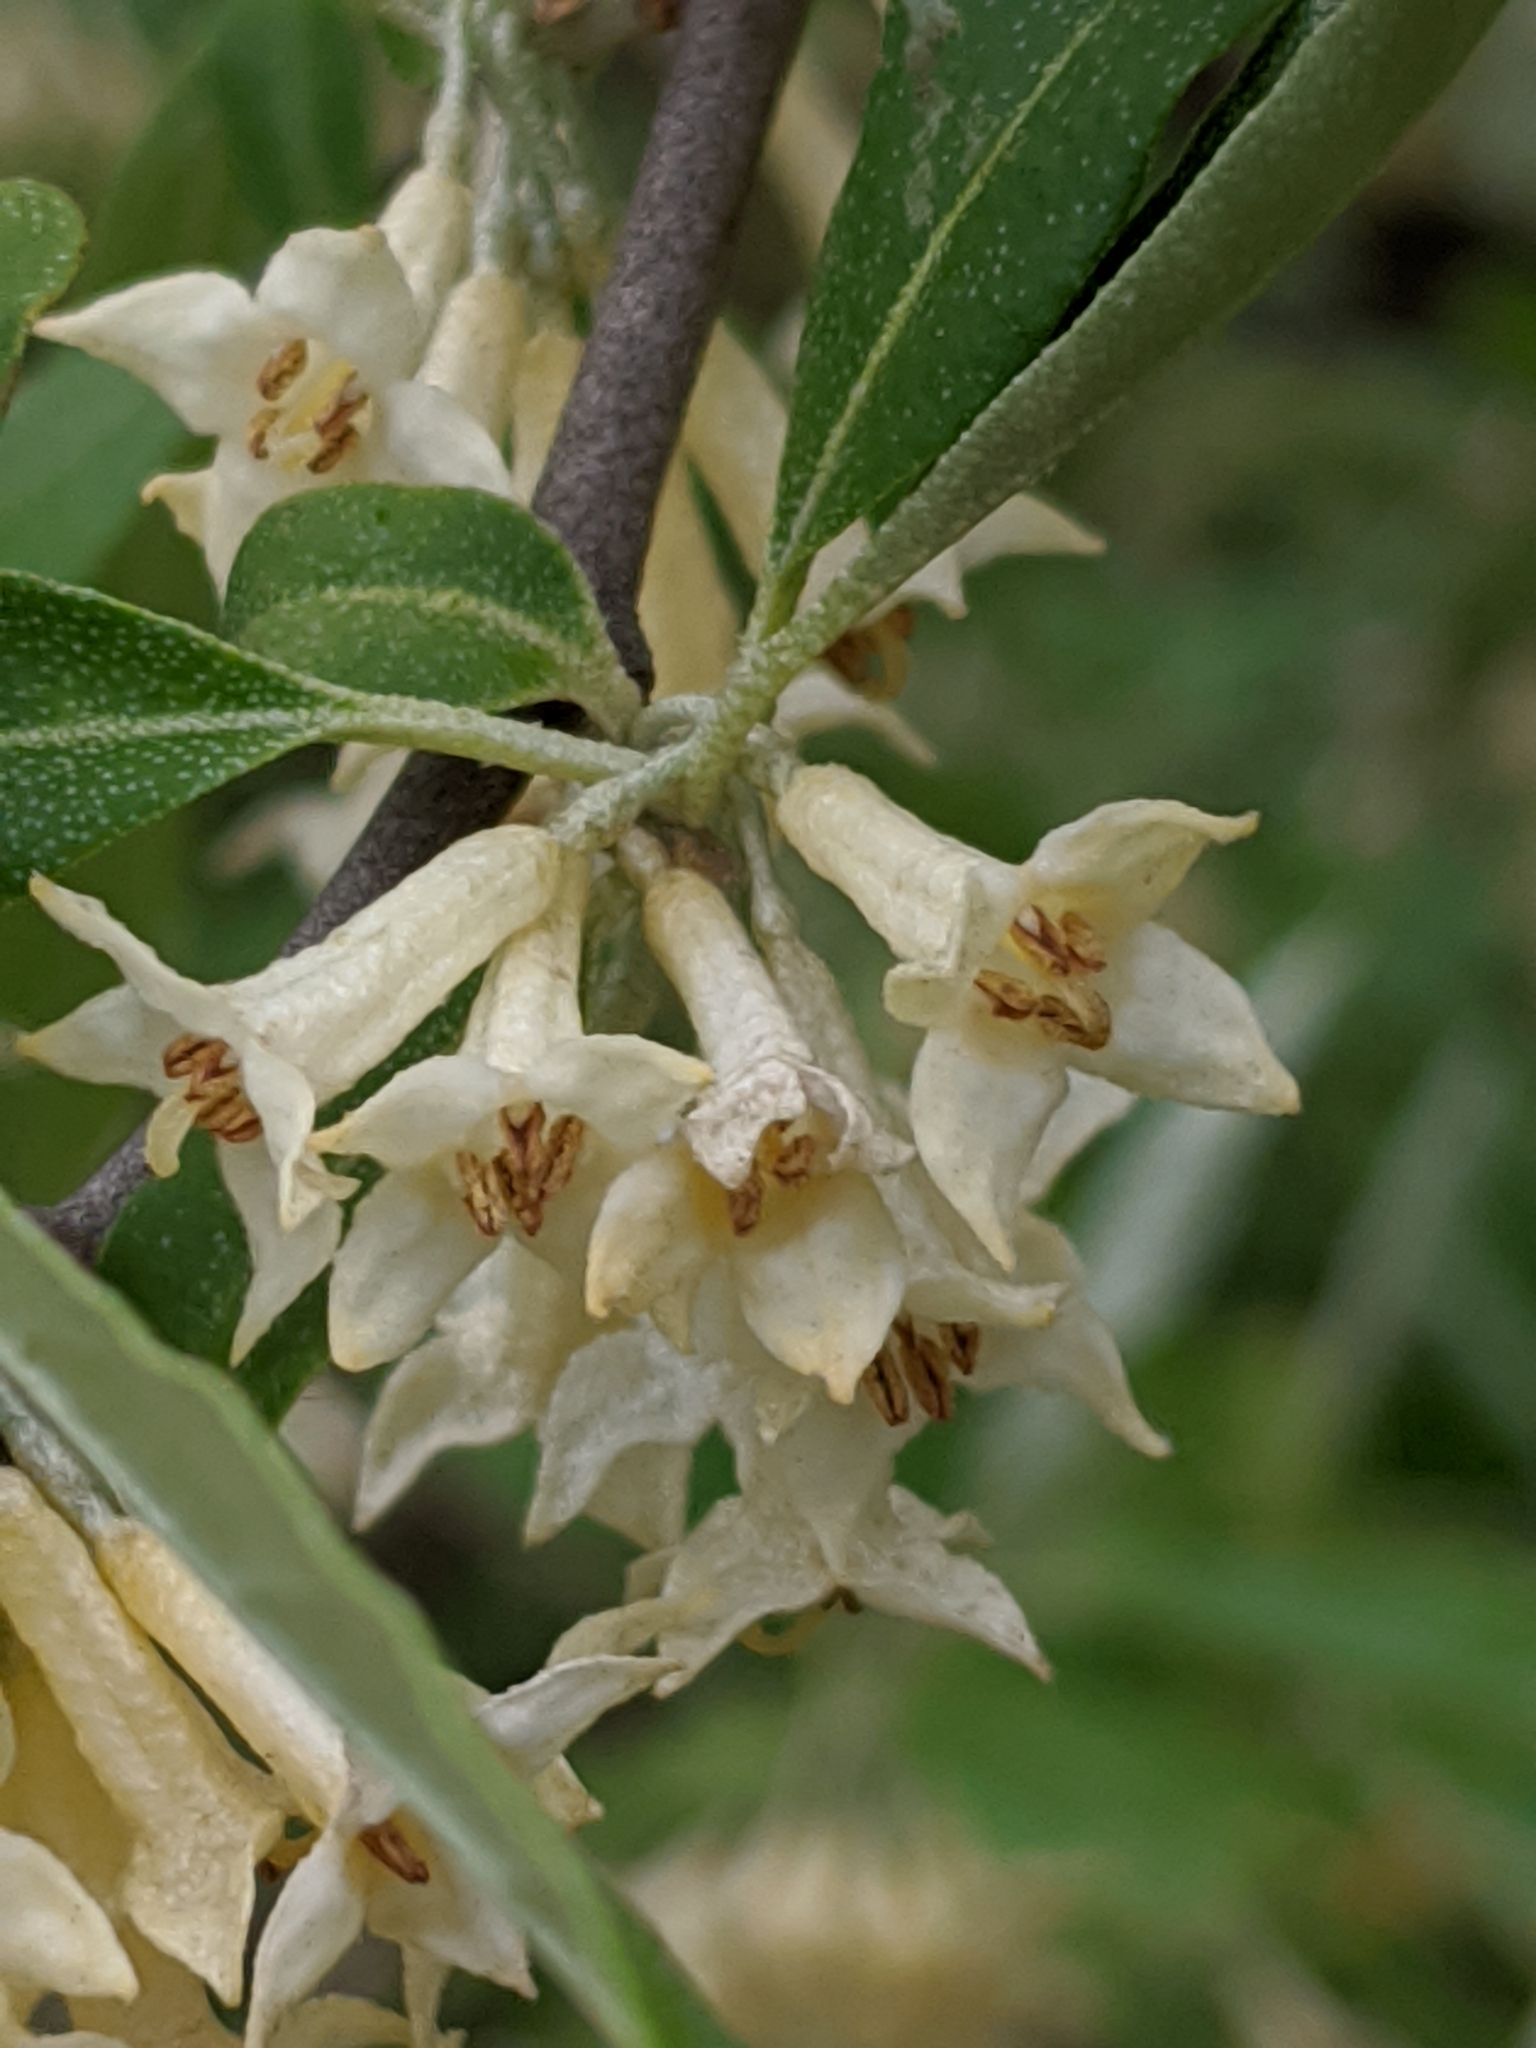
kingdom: Plantae
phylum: Tracheophyta
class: Magnoliopsida
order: Rosales
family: Elaeagnaceae
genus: Elaeagnus
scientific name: Elaeagnus umbellata
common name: Autumn olive
